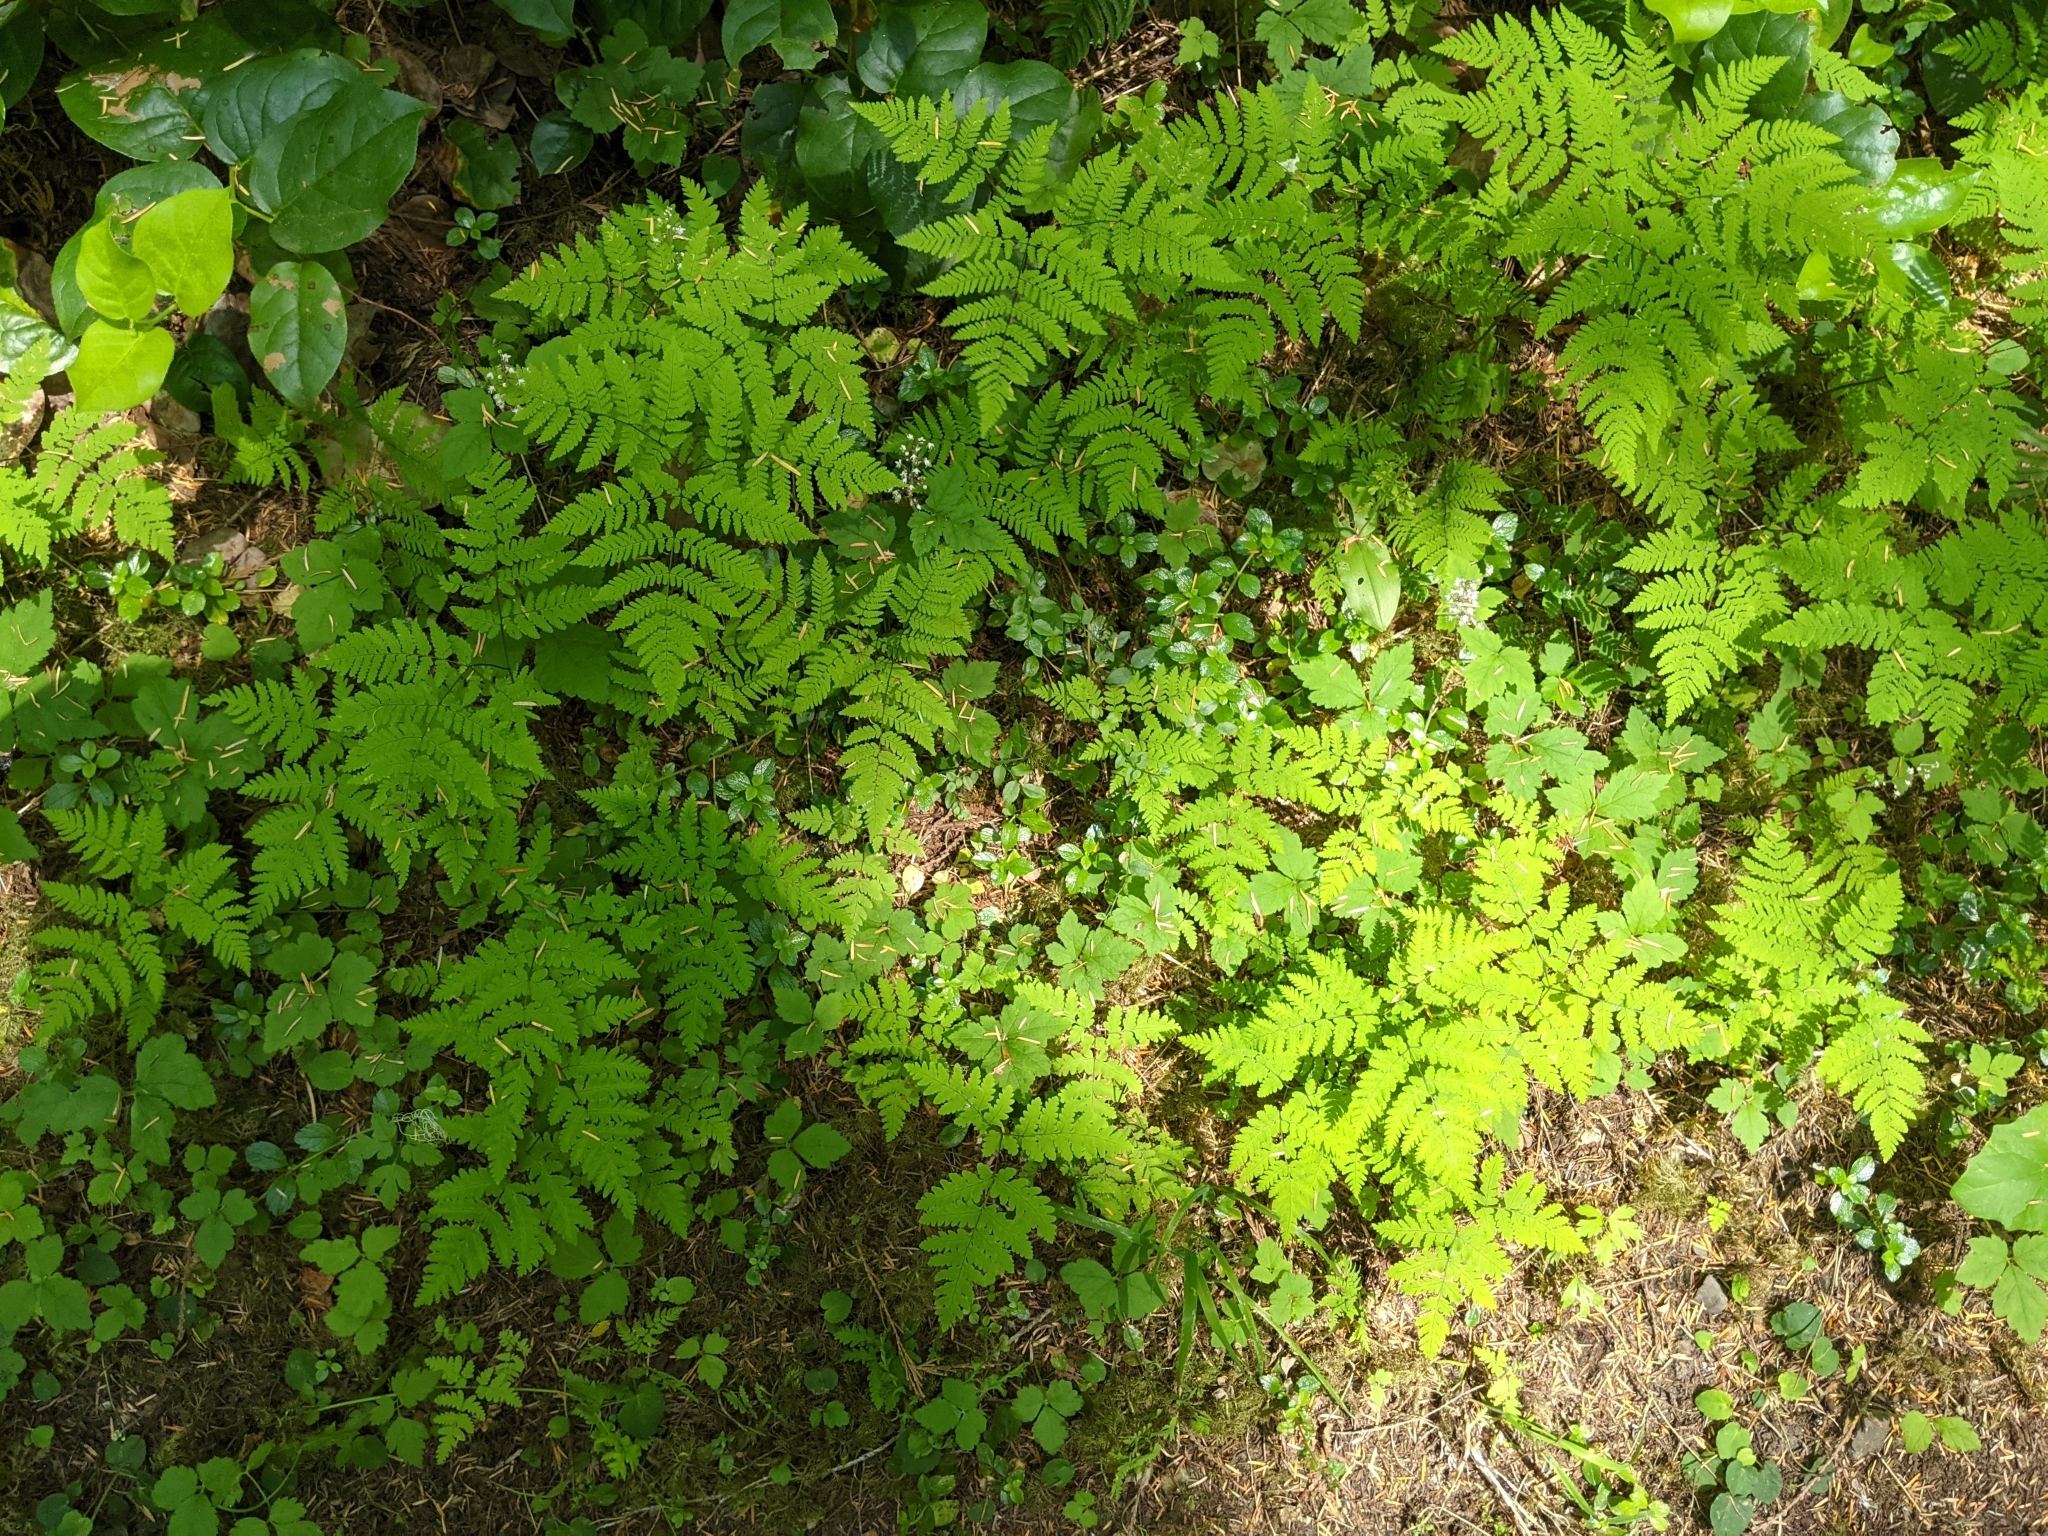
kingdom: Plantae
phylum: Tracheophyta
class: Polypodiopsida
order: Polypodiales
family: Cystopteridaceae
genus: Gymnocarpium
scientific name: Gymnocarpium disjunctum
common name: Western oak fern
